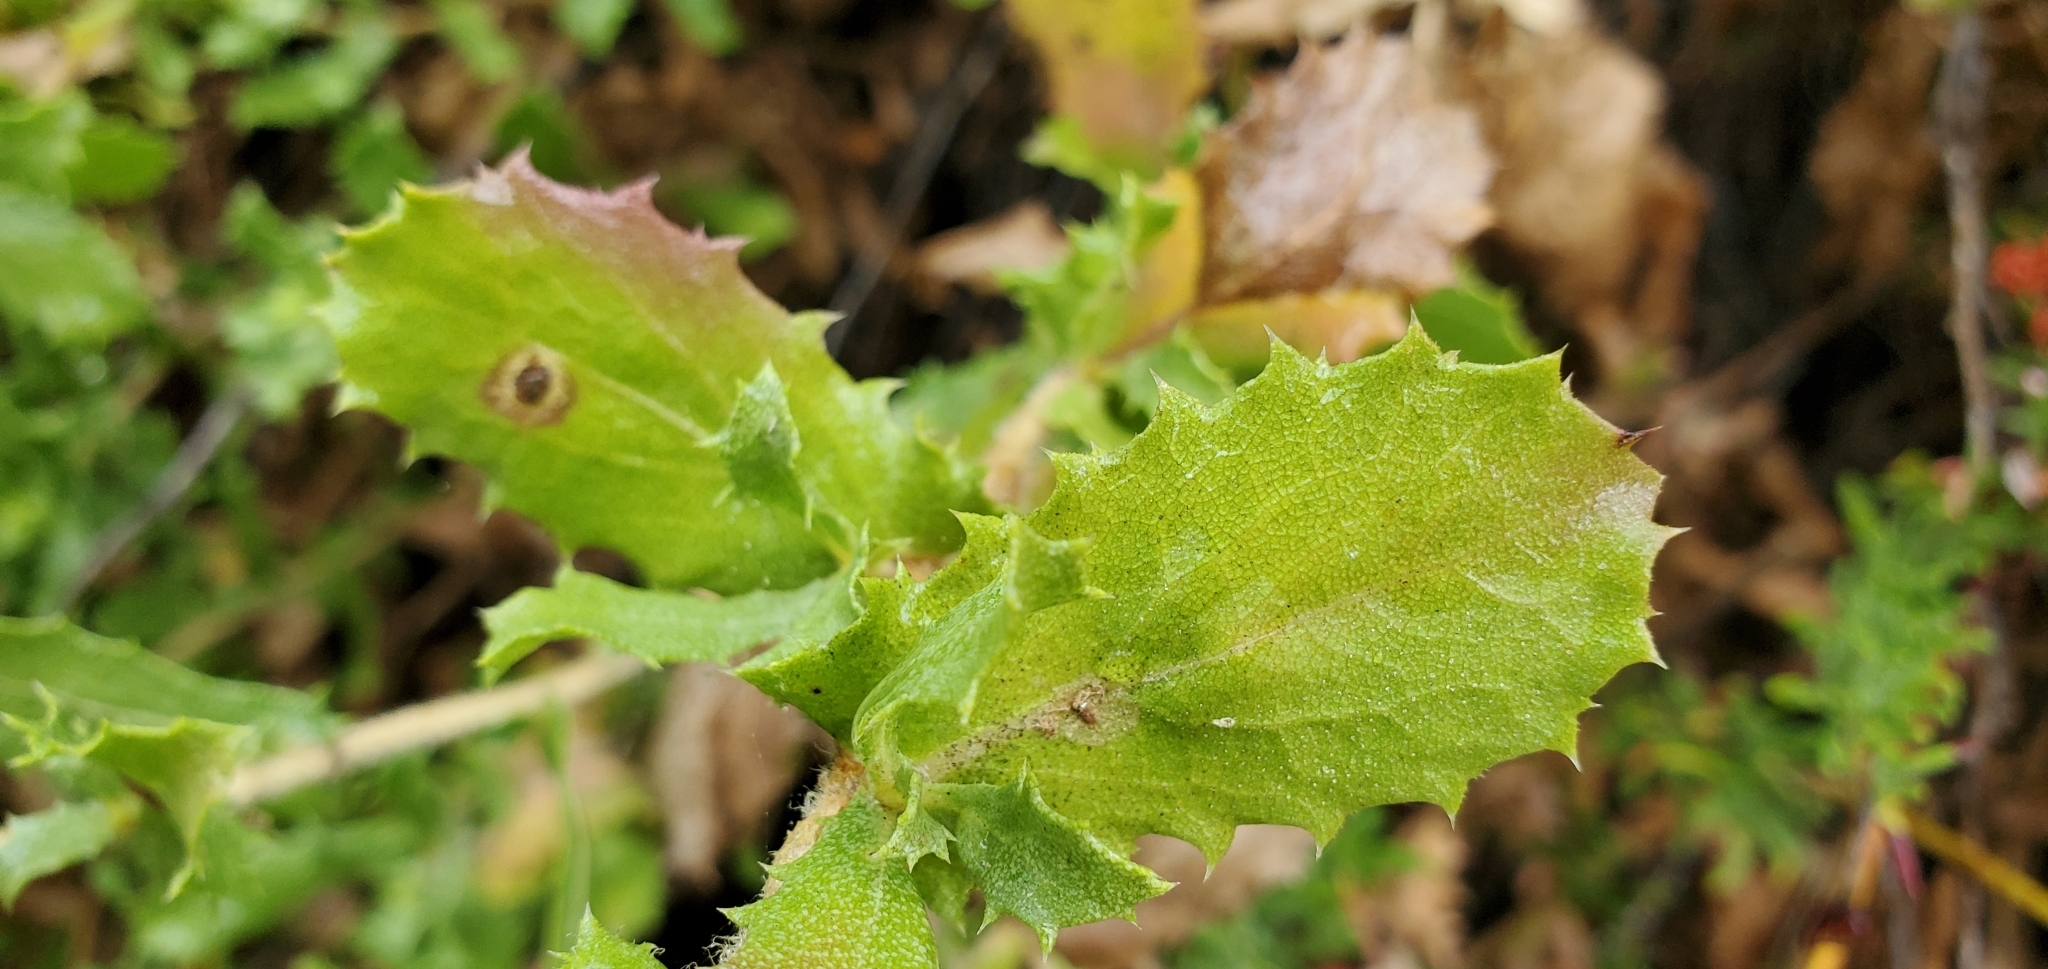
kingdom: Plantae
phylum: Tracheophyta
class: Magnoliopsida
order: Asterales
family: Asteraceae
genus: Hazardia
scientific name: Hazardia squarrosa
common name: Saw-tooth goldenbush
